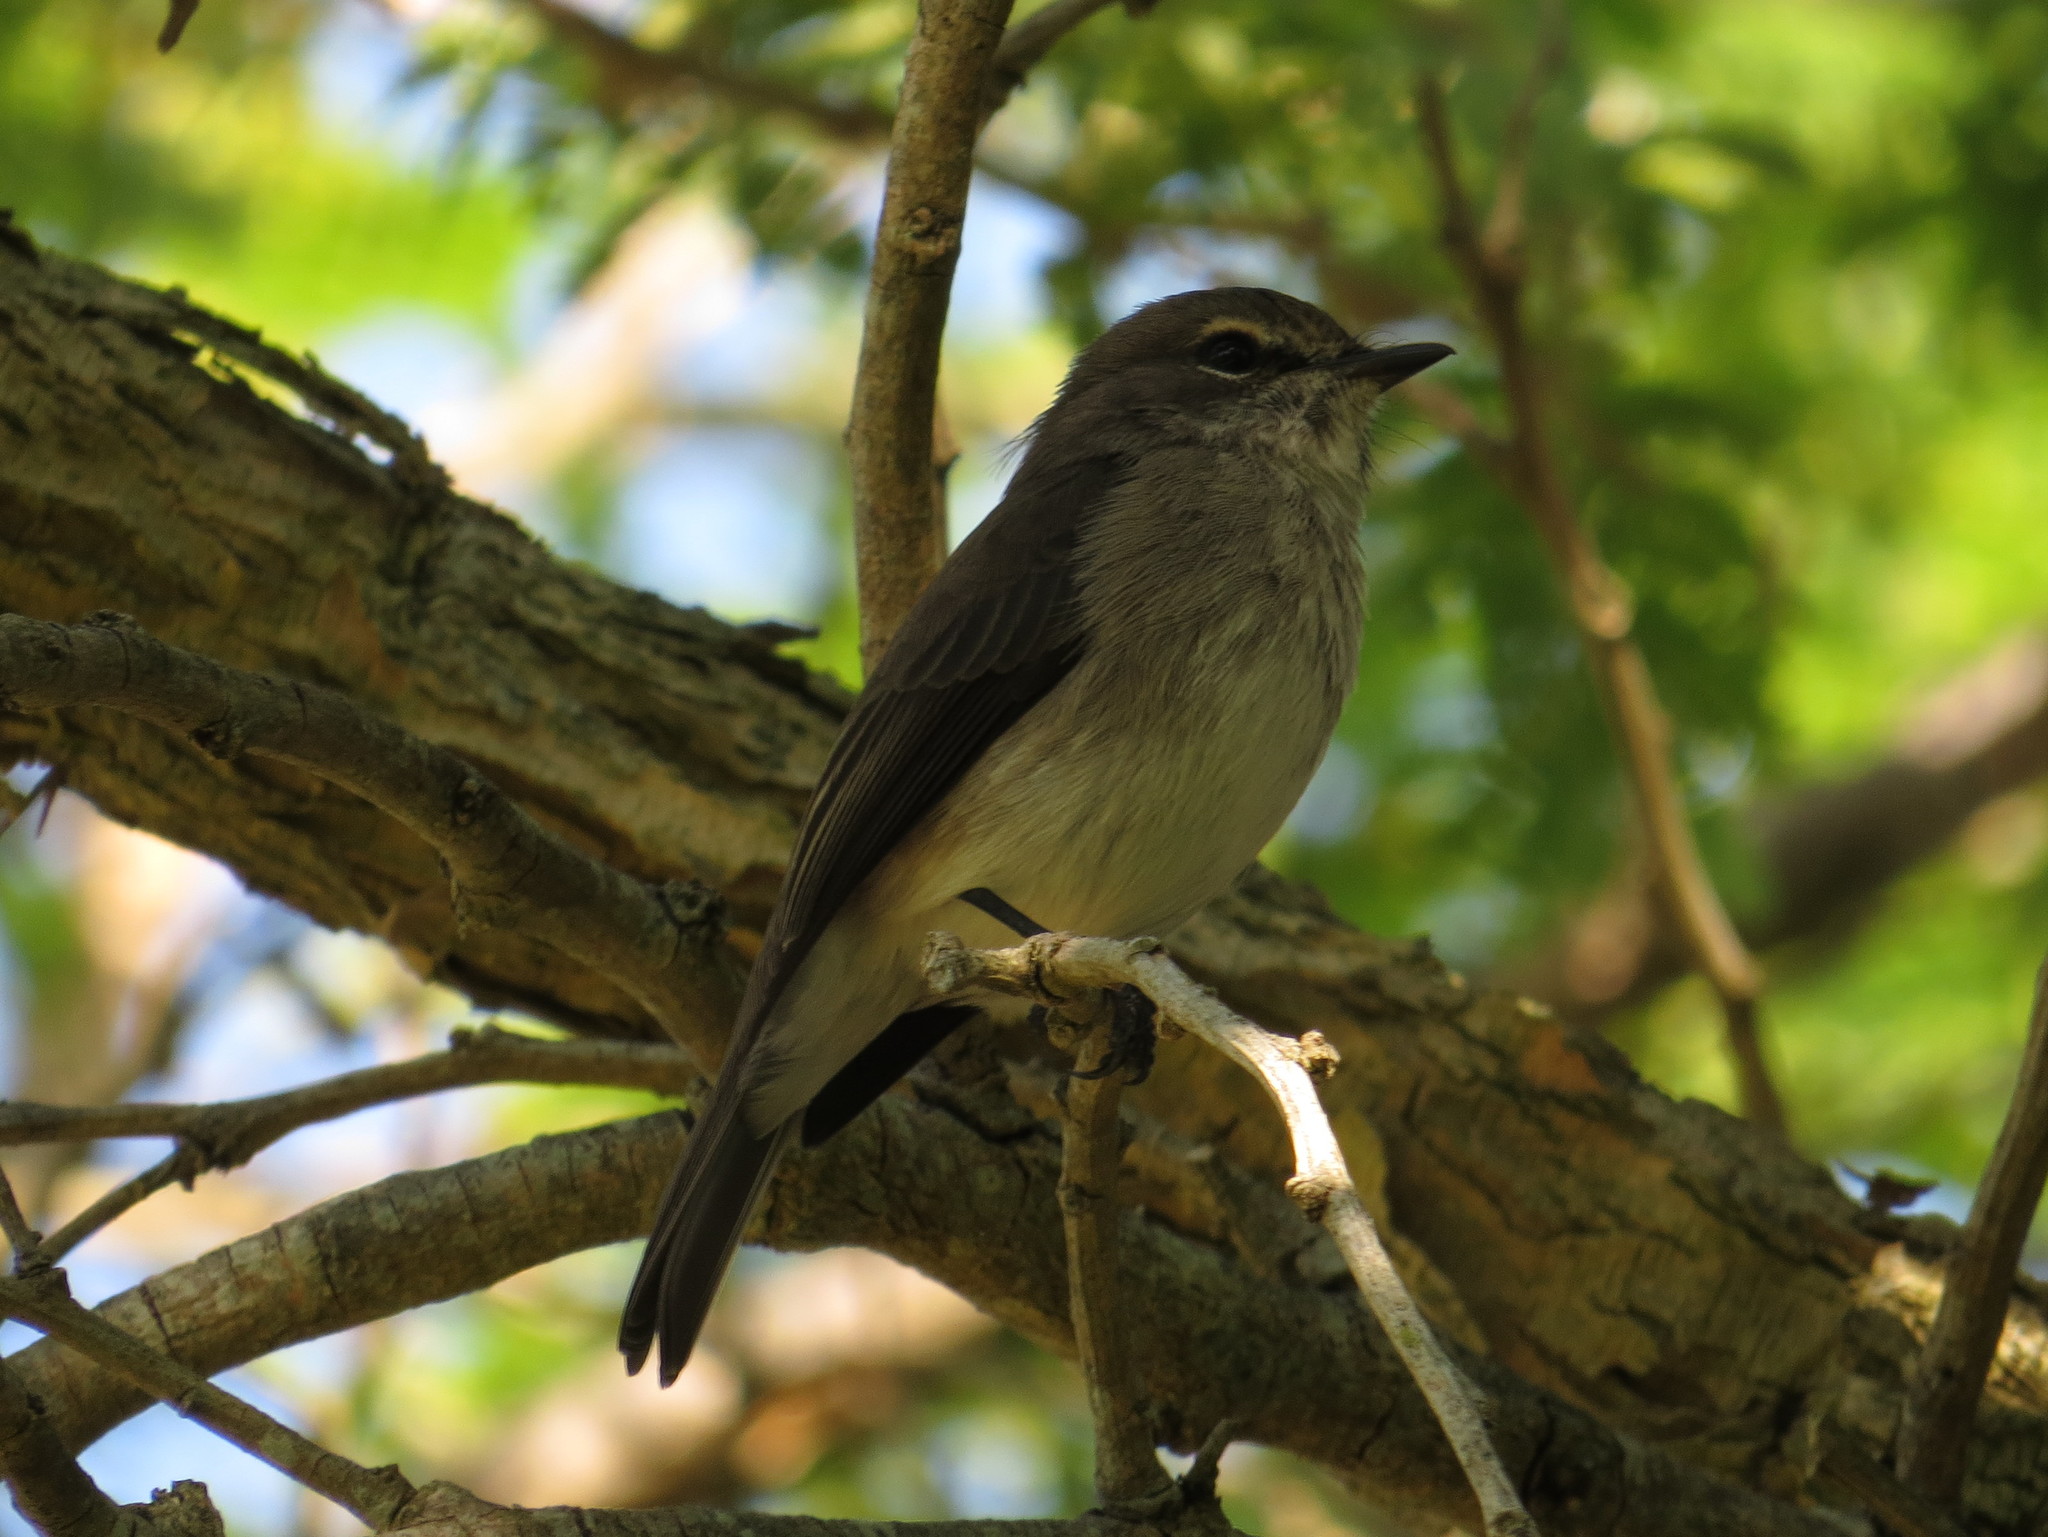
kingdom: Animalia
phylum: Chordata
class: Aves
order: Passeriformes
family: Muscicapidae
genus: Muscicapa
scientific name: Muscicapa adusta
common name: African dusky flycatcher
